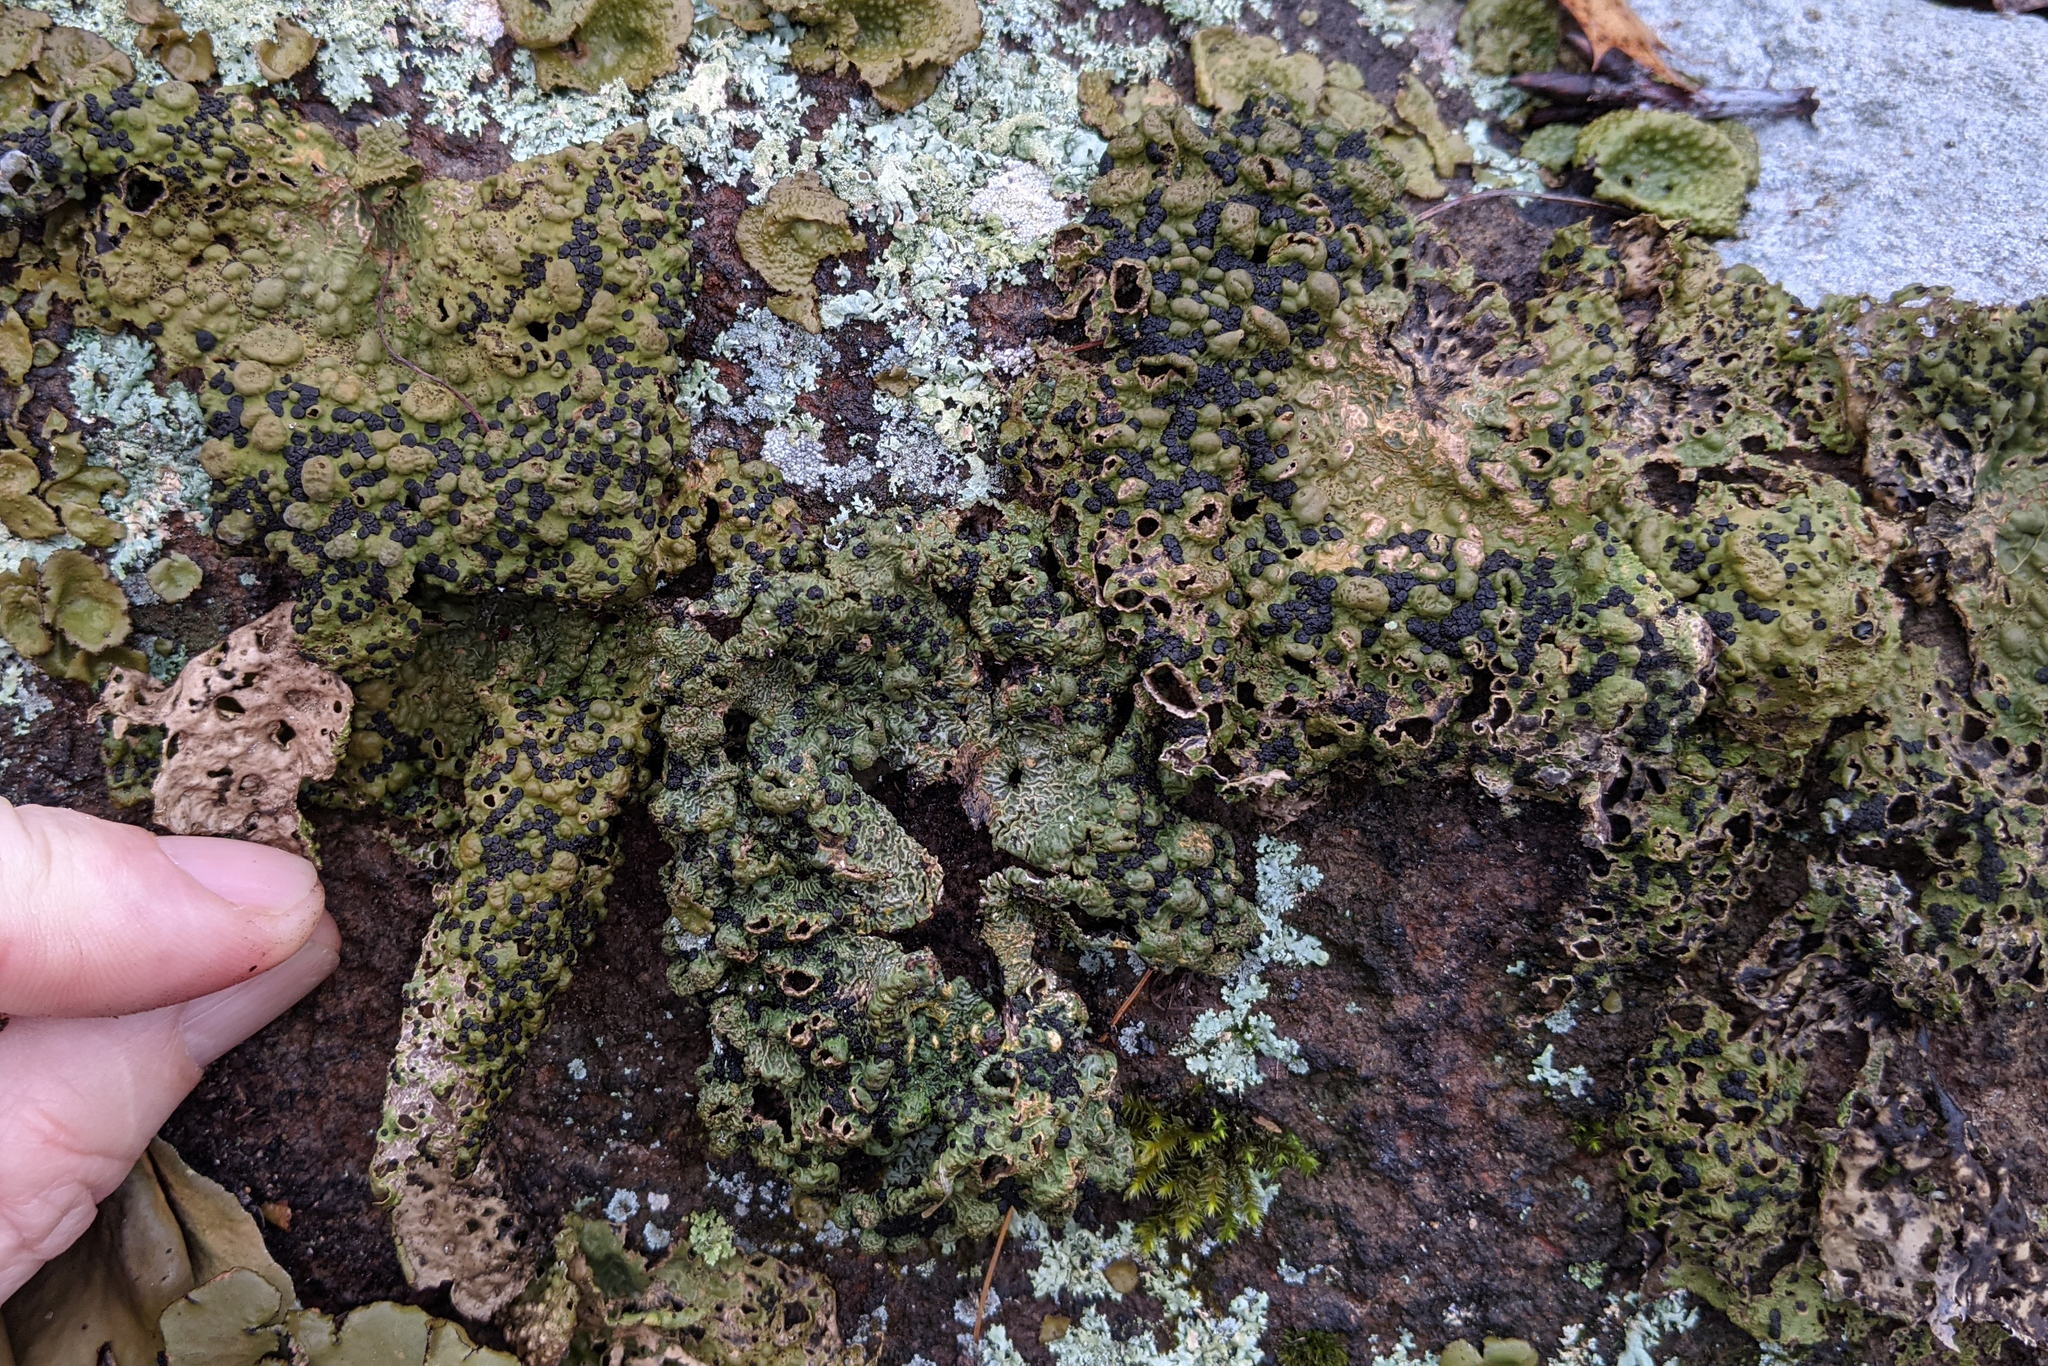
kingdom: Fungi
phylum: Ascomycota
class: Lecanoromycetes
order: Umbilicariales
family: Umbilicariaceae
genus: Lasallia
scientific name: Lasallia papulosa
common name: Common toadskin lichen
